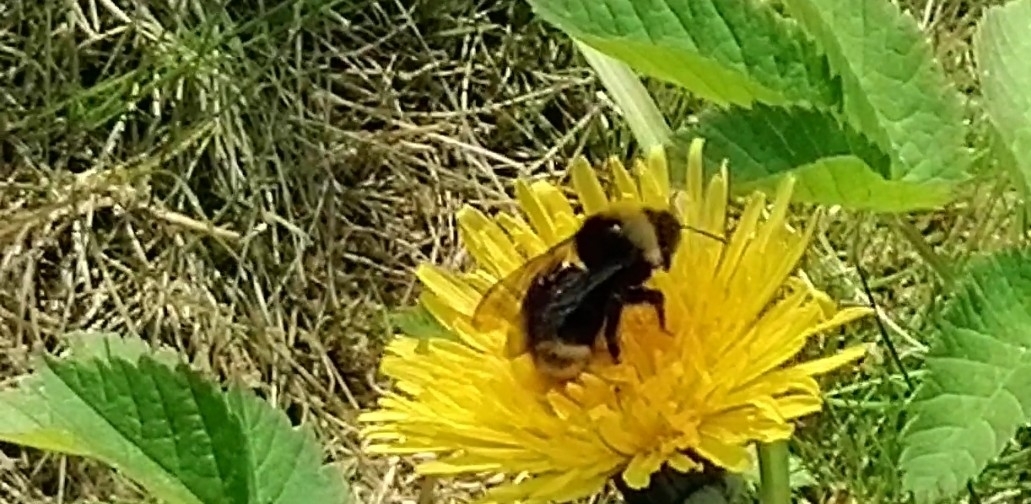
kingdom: Animalia
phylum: Arthropoda
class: Insecta
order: Hymenoptera
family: Apidae
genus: Bombus
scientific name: Bombus
